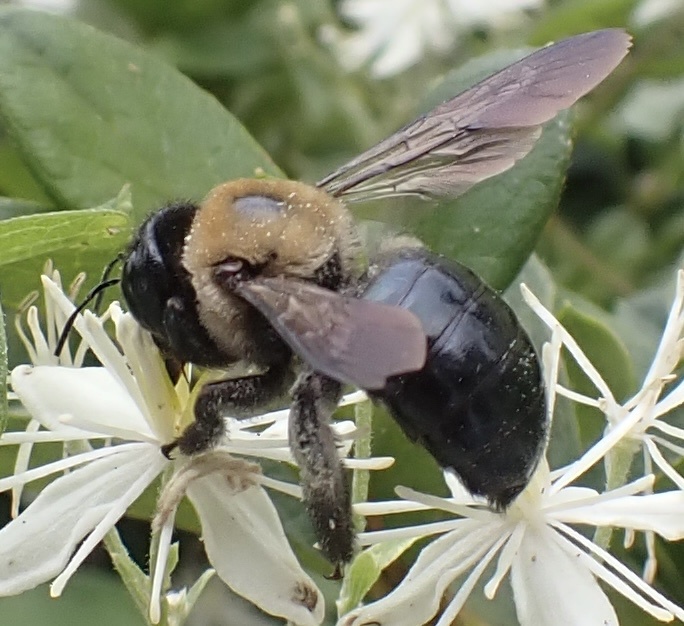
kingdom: Animalia
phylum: Arthropoda
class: Insecta
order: Hymenoptera
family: Apidae
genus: Xylocopa
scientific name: Xylocopa virginica
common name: Carpenter bee
